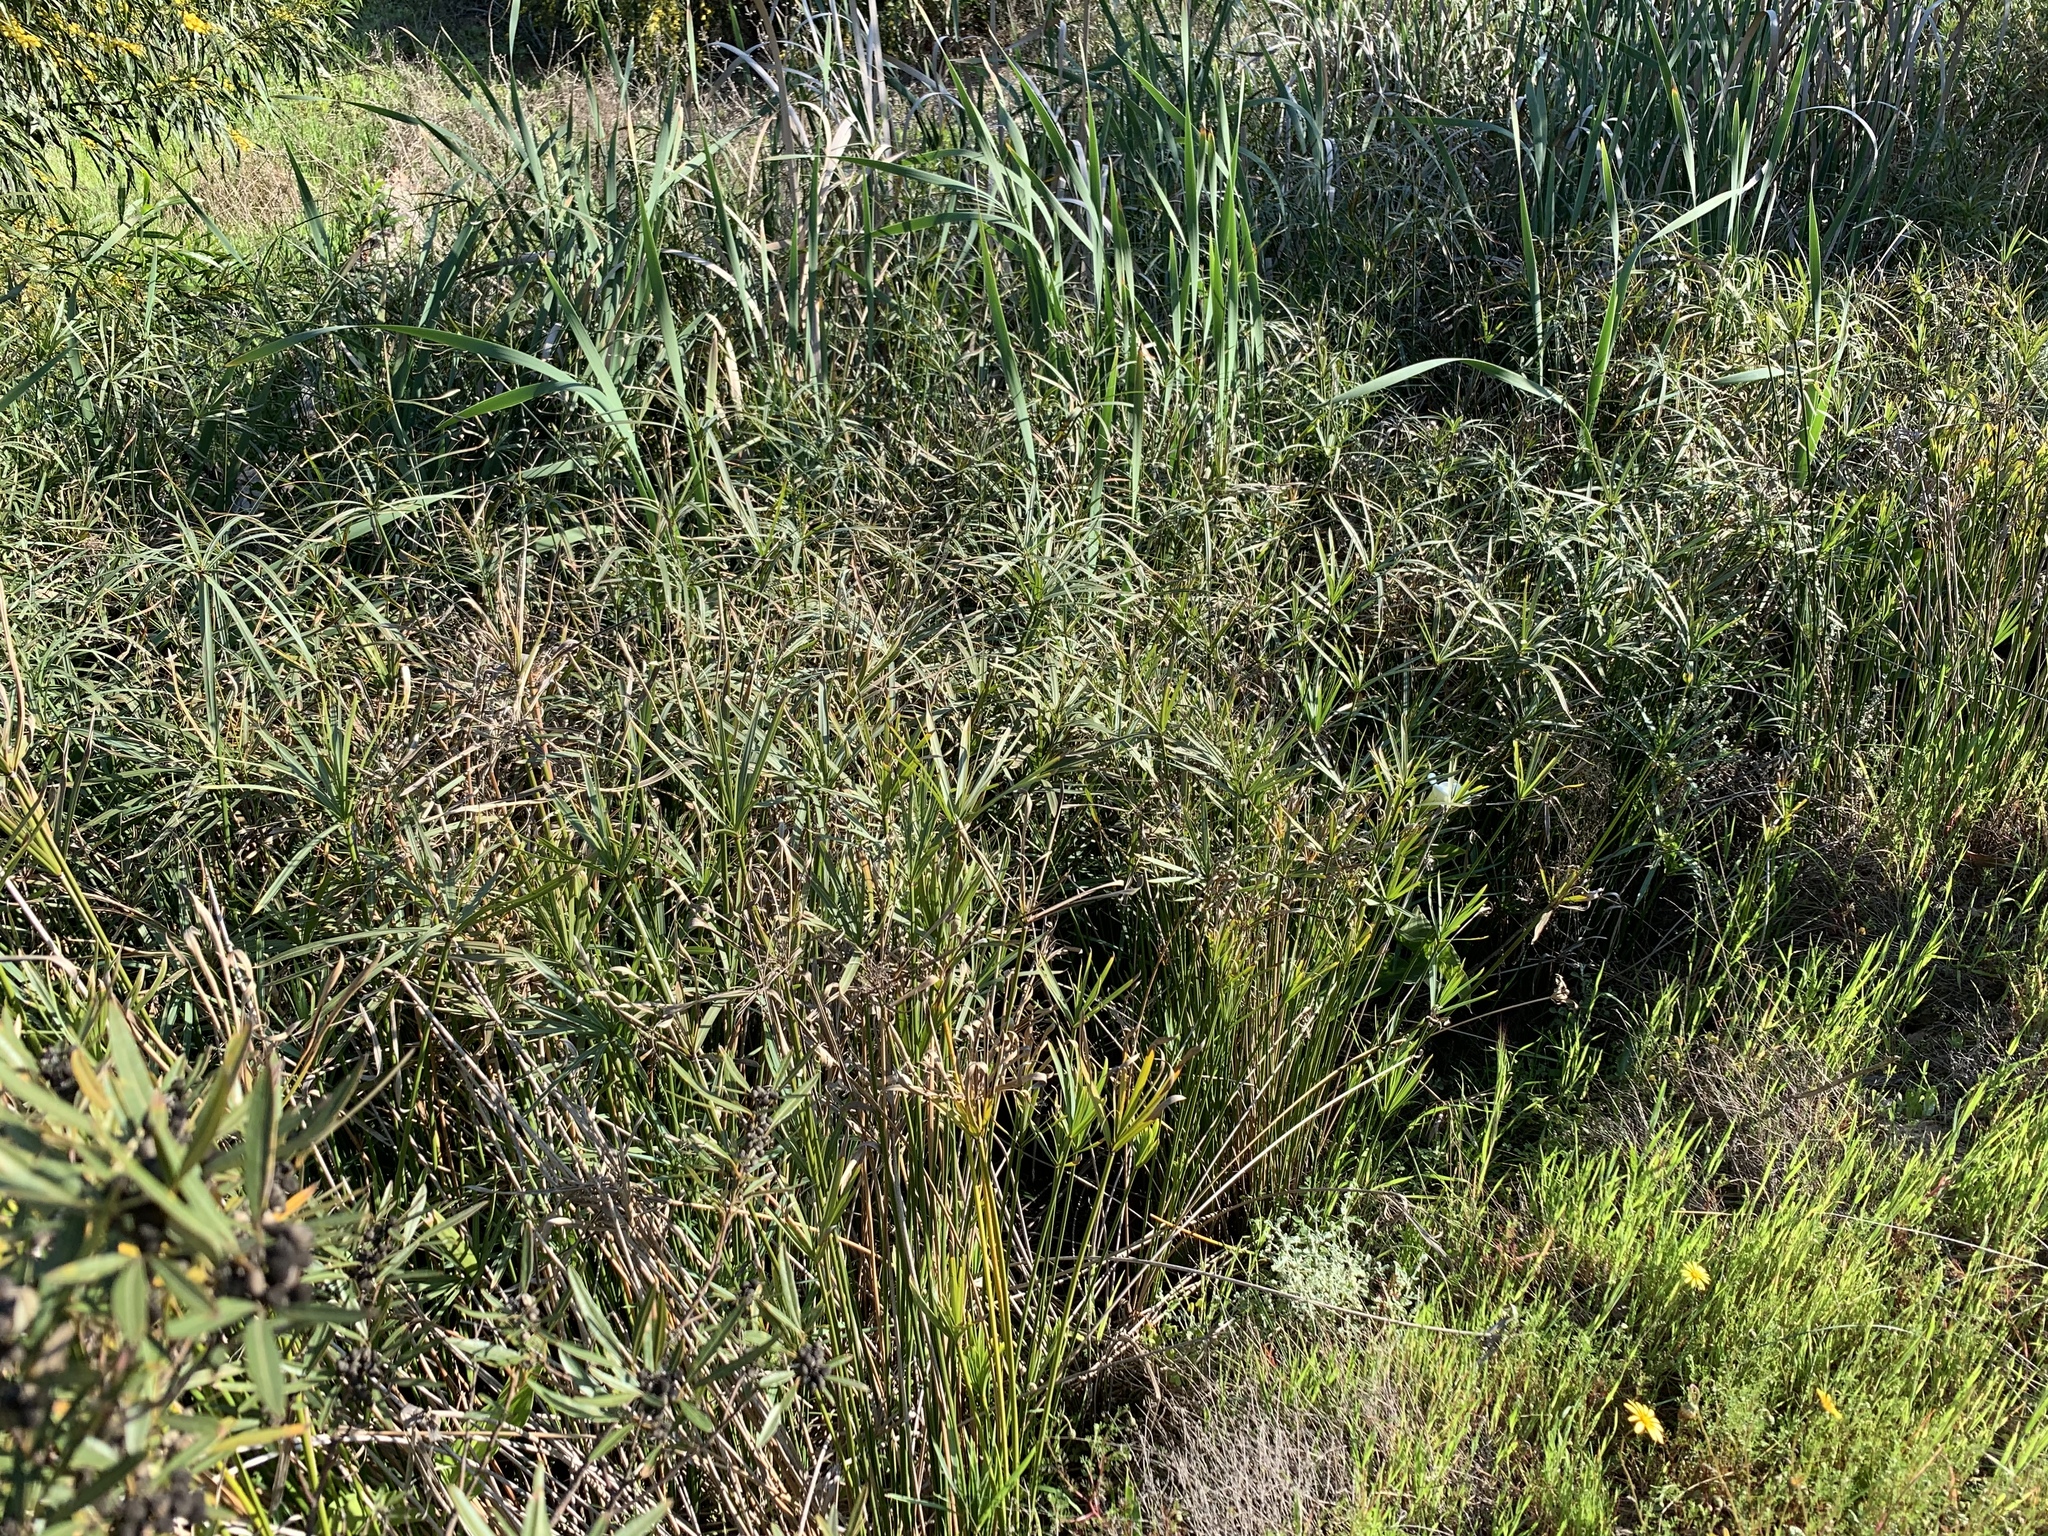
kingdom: Plantae
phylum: Tracheophyta
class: Liliopsida
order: Poales
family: Cyperaceae
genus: Cyperus
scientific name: Cyperus textilis
